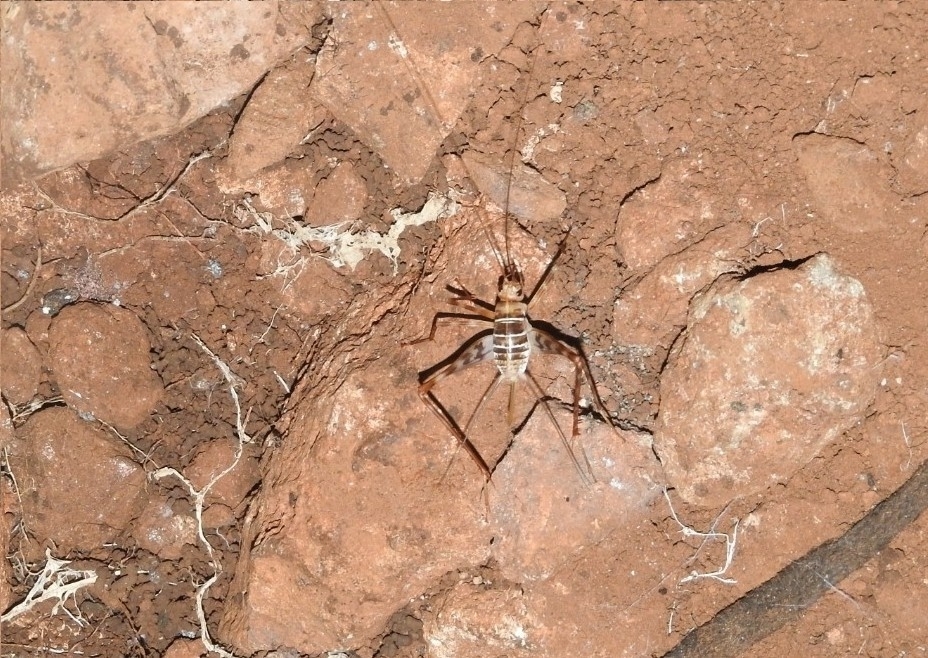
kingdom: Animalia
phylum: Arthropoda
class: Insecta
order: Orthoptera
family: Phalangopsidae
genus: Mayagryllus
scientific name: Mayagryllus yucatanus
